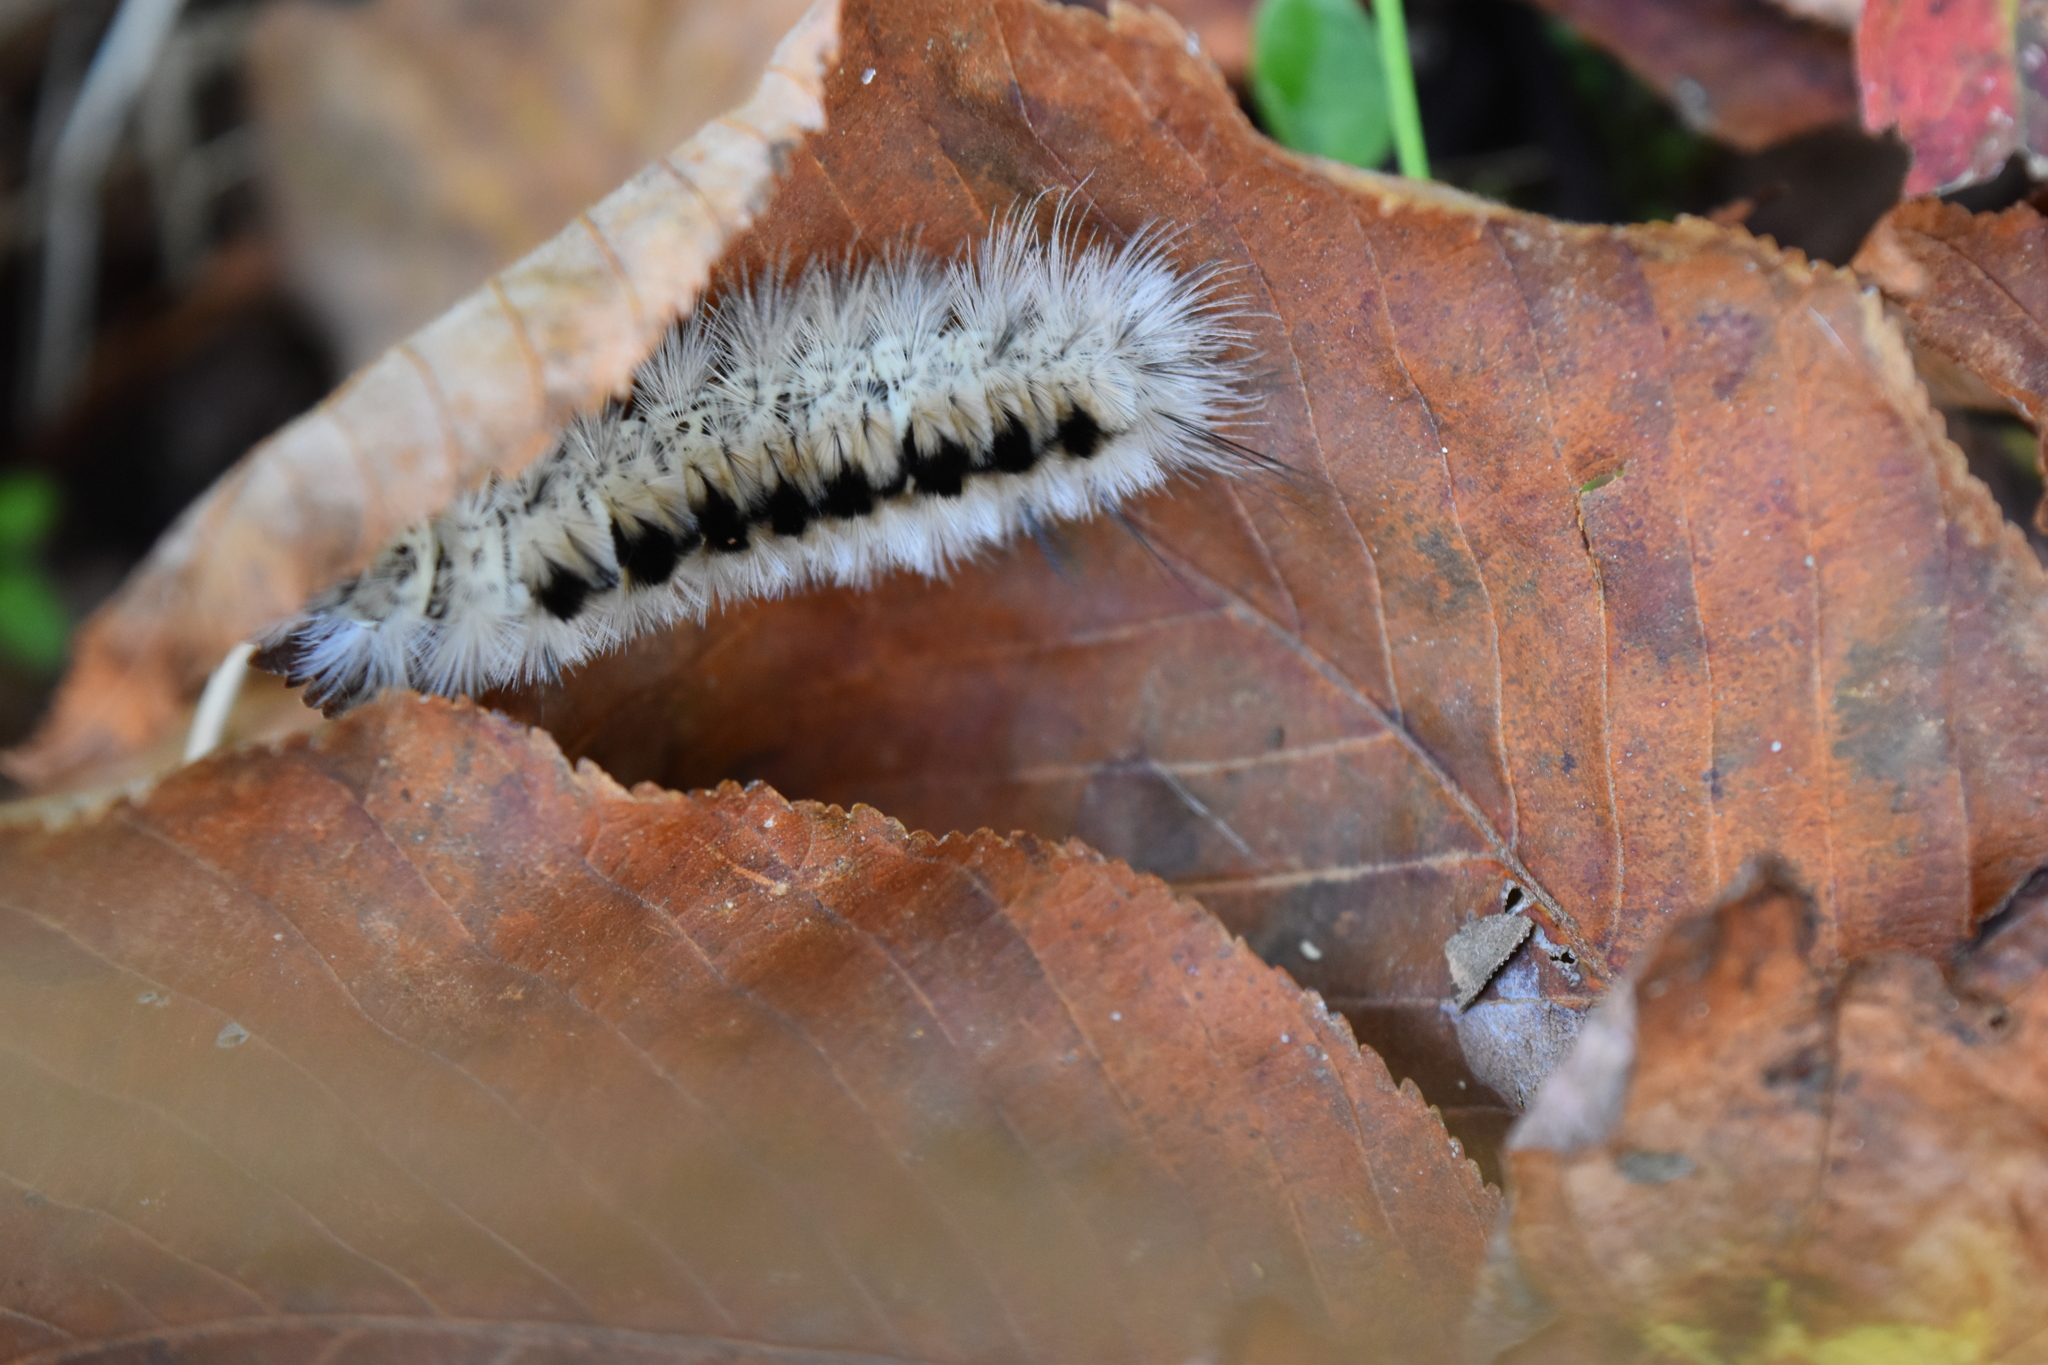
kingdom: Animalia
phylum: Arthropoda
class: Insecta
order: Lepidoptera
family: Erebidae
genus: Lophocampa
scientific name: Lophocampa caryae
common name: Hickory tussock moth
